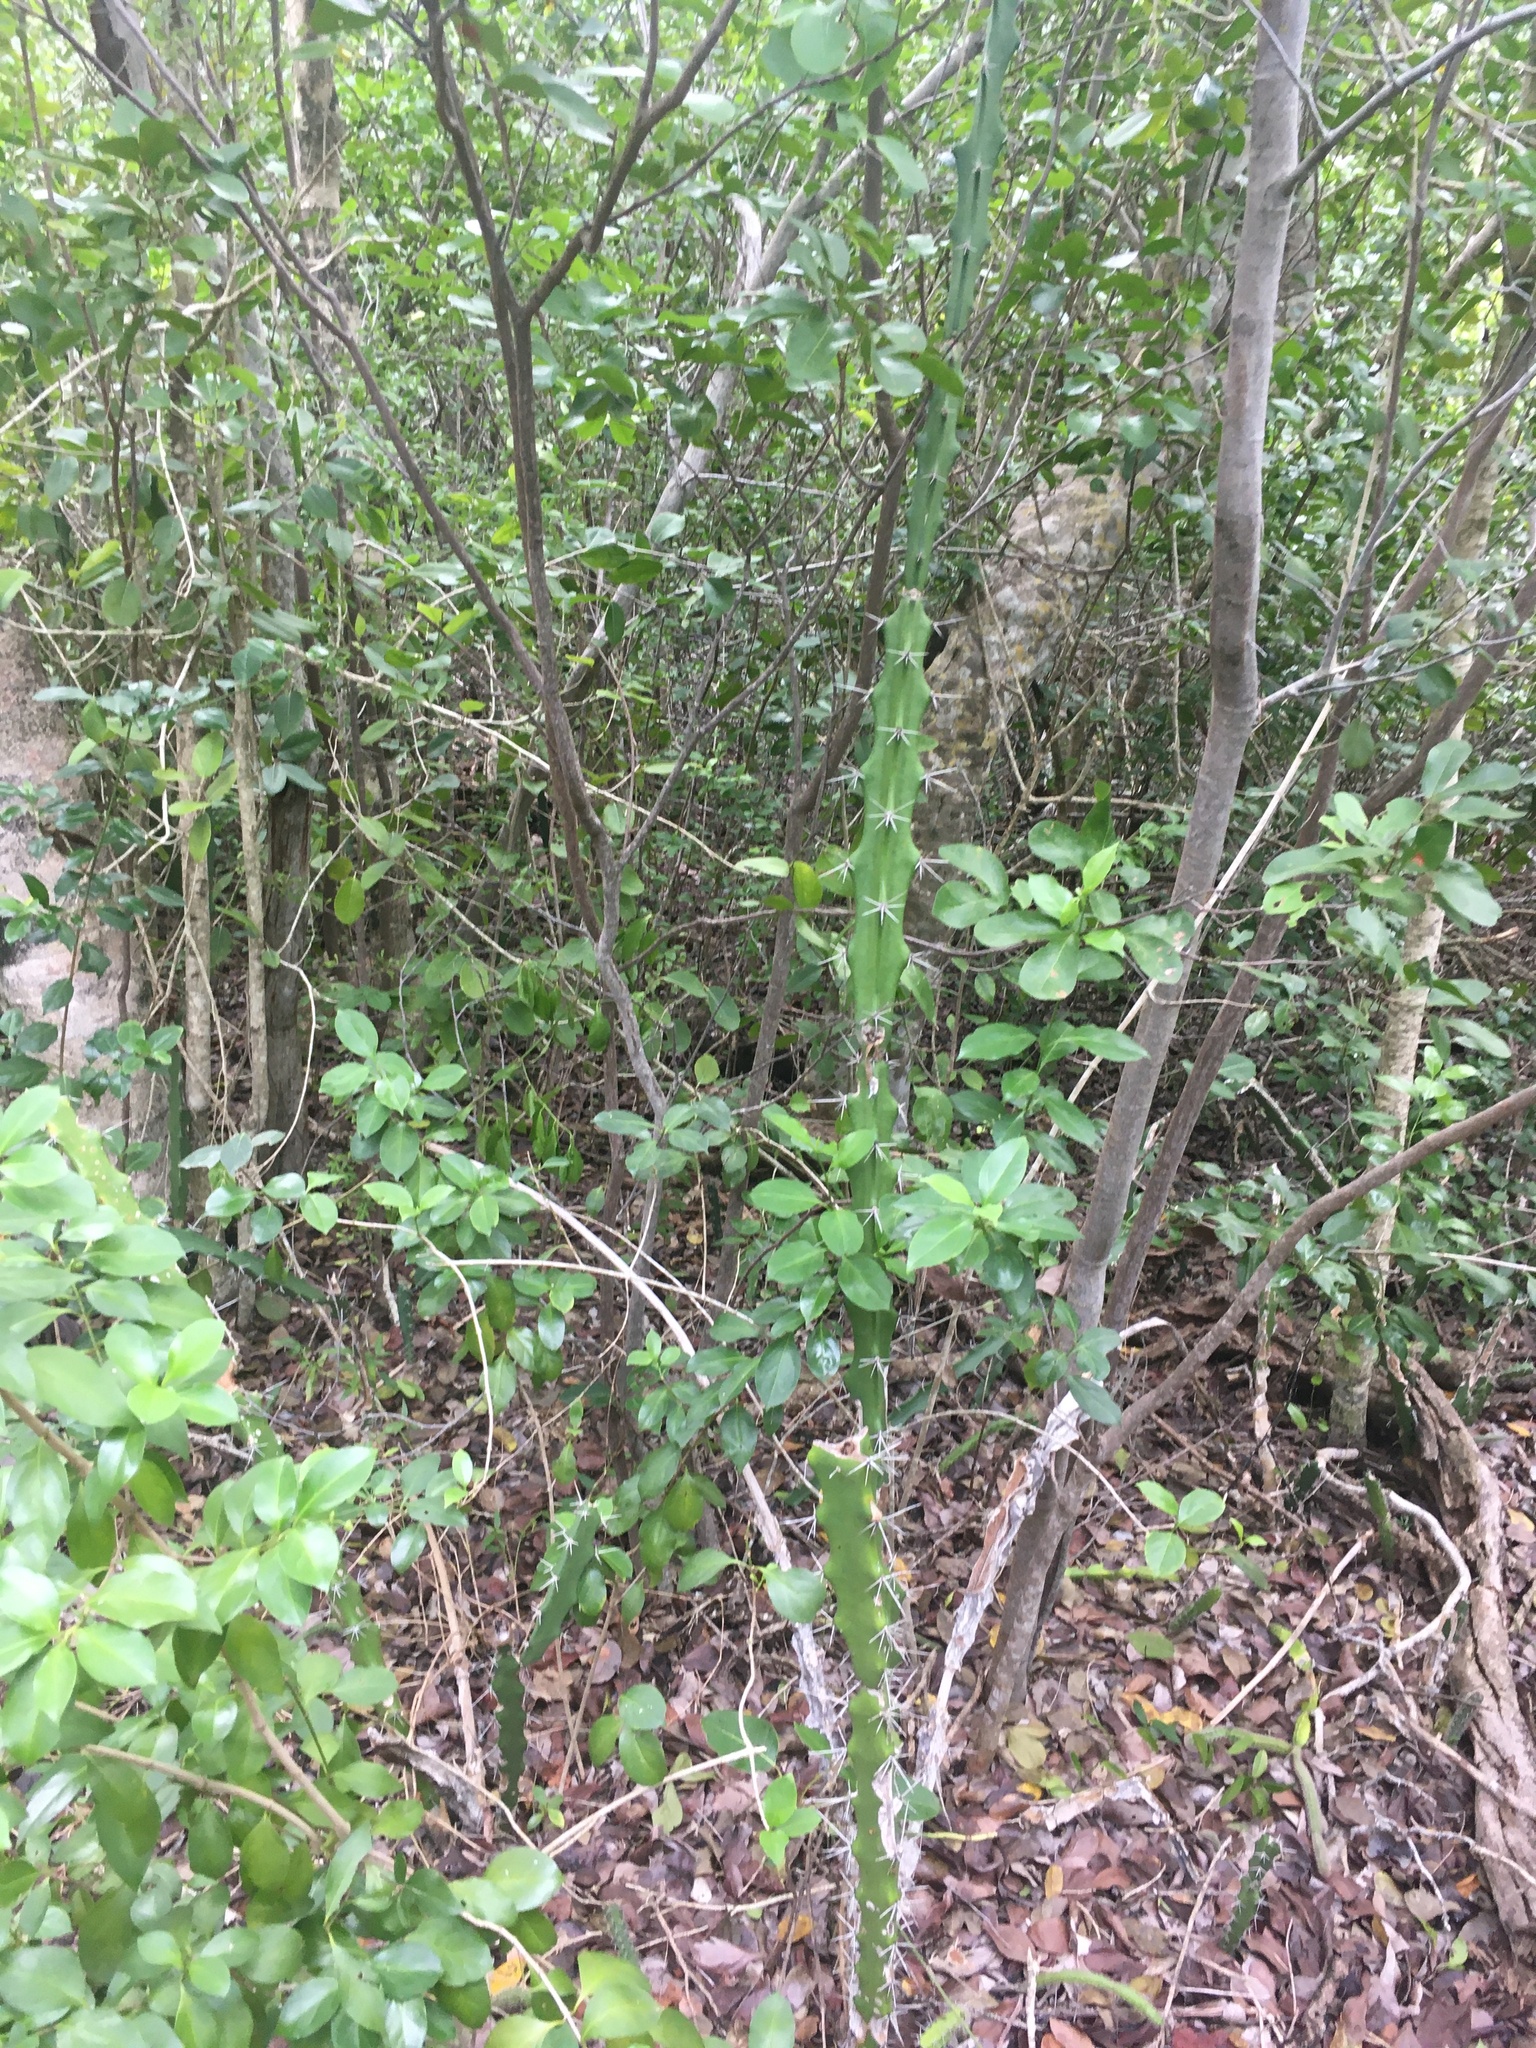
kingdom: Plantae
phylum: Tracheophyta
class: Magnoliopsida
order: Caryophyllales
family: Cactaceae
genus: Acanthocereus
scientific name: Acanthocereus tetragonus
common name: Triangle cactus
